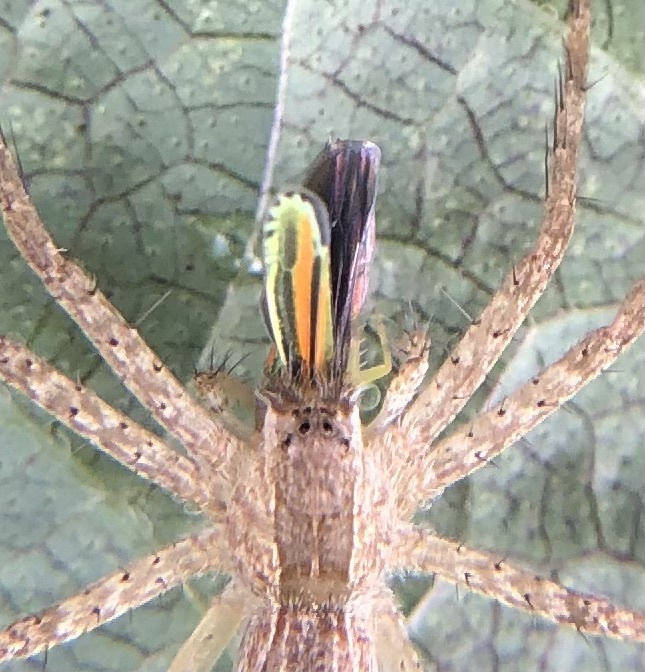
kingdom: Animalia
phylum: Arthropoda
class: Arachnida
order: Araneae
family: Pisauridae
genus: Pisaurina
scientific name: Pisaurina mira
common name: American nursery web spider
